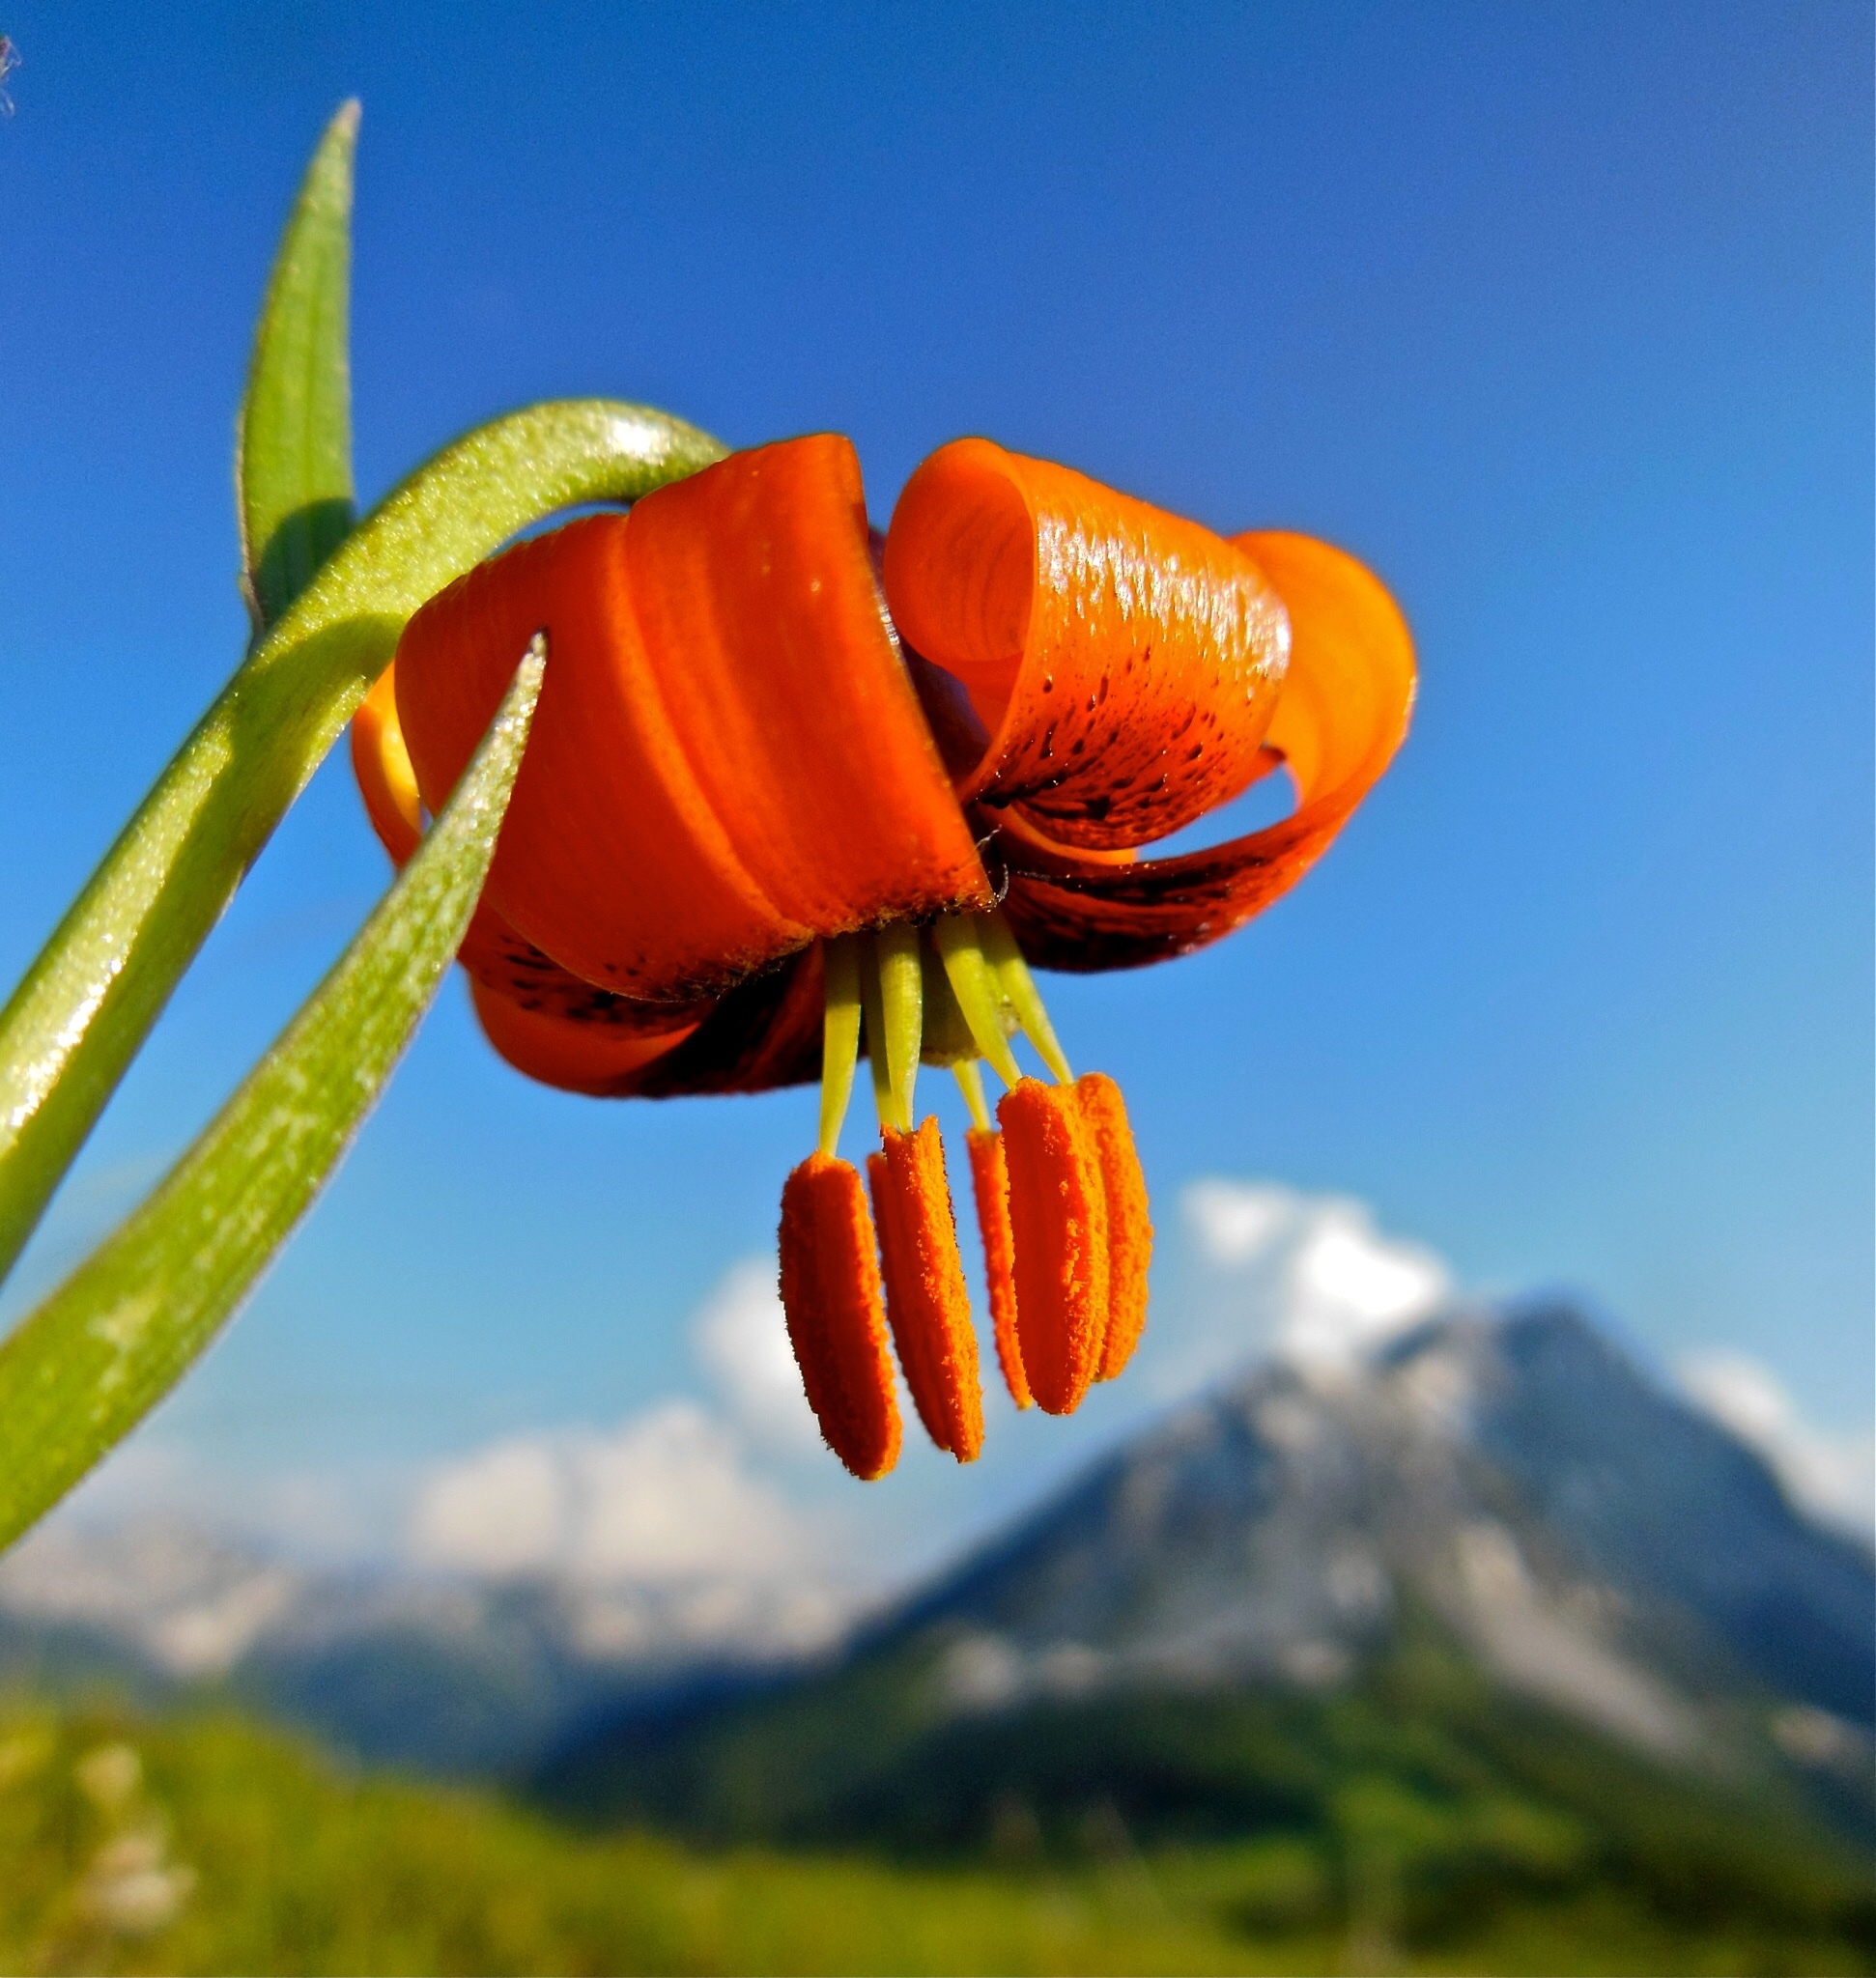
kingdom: Plantae
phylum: Tracheophyta
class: Liliopsida
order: Liliales
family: Liliaceae
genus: Lilium
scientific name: Lilium albanicum
